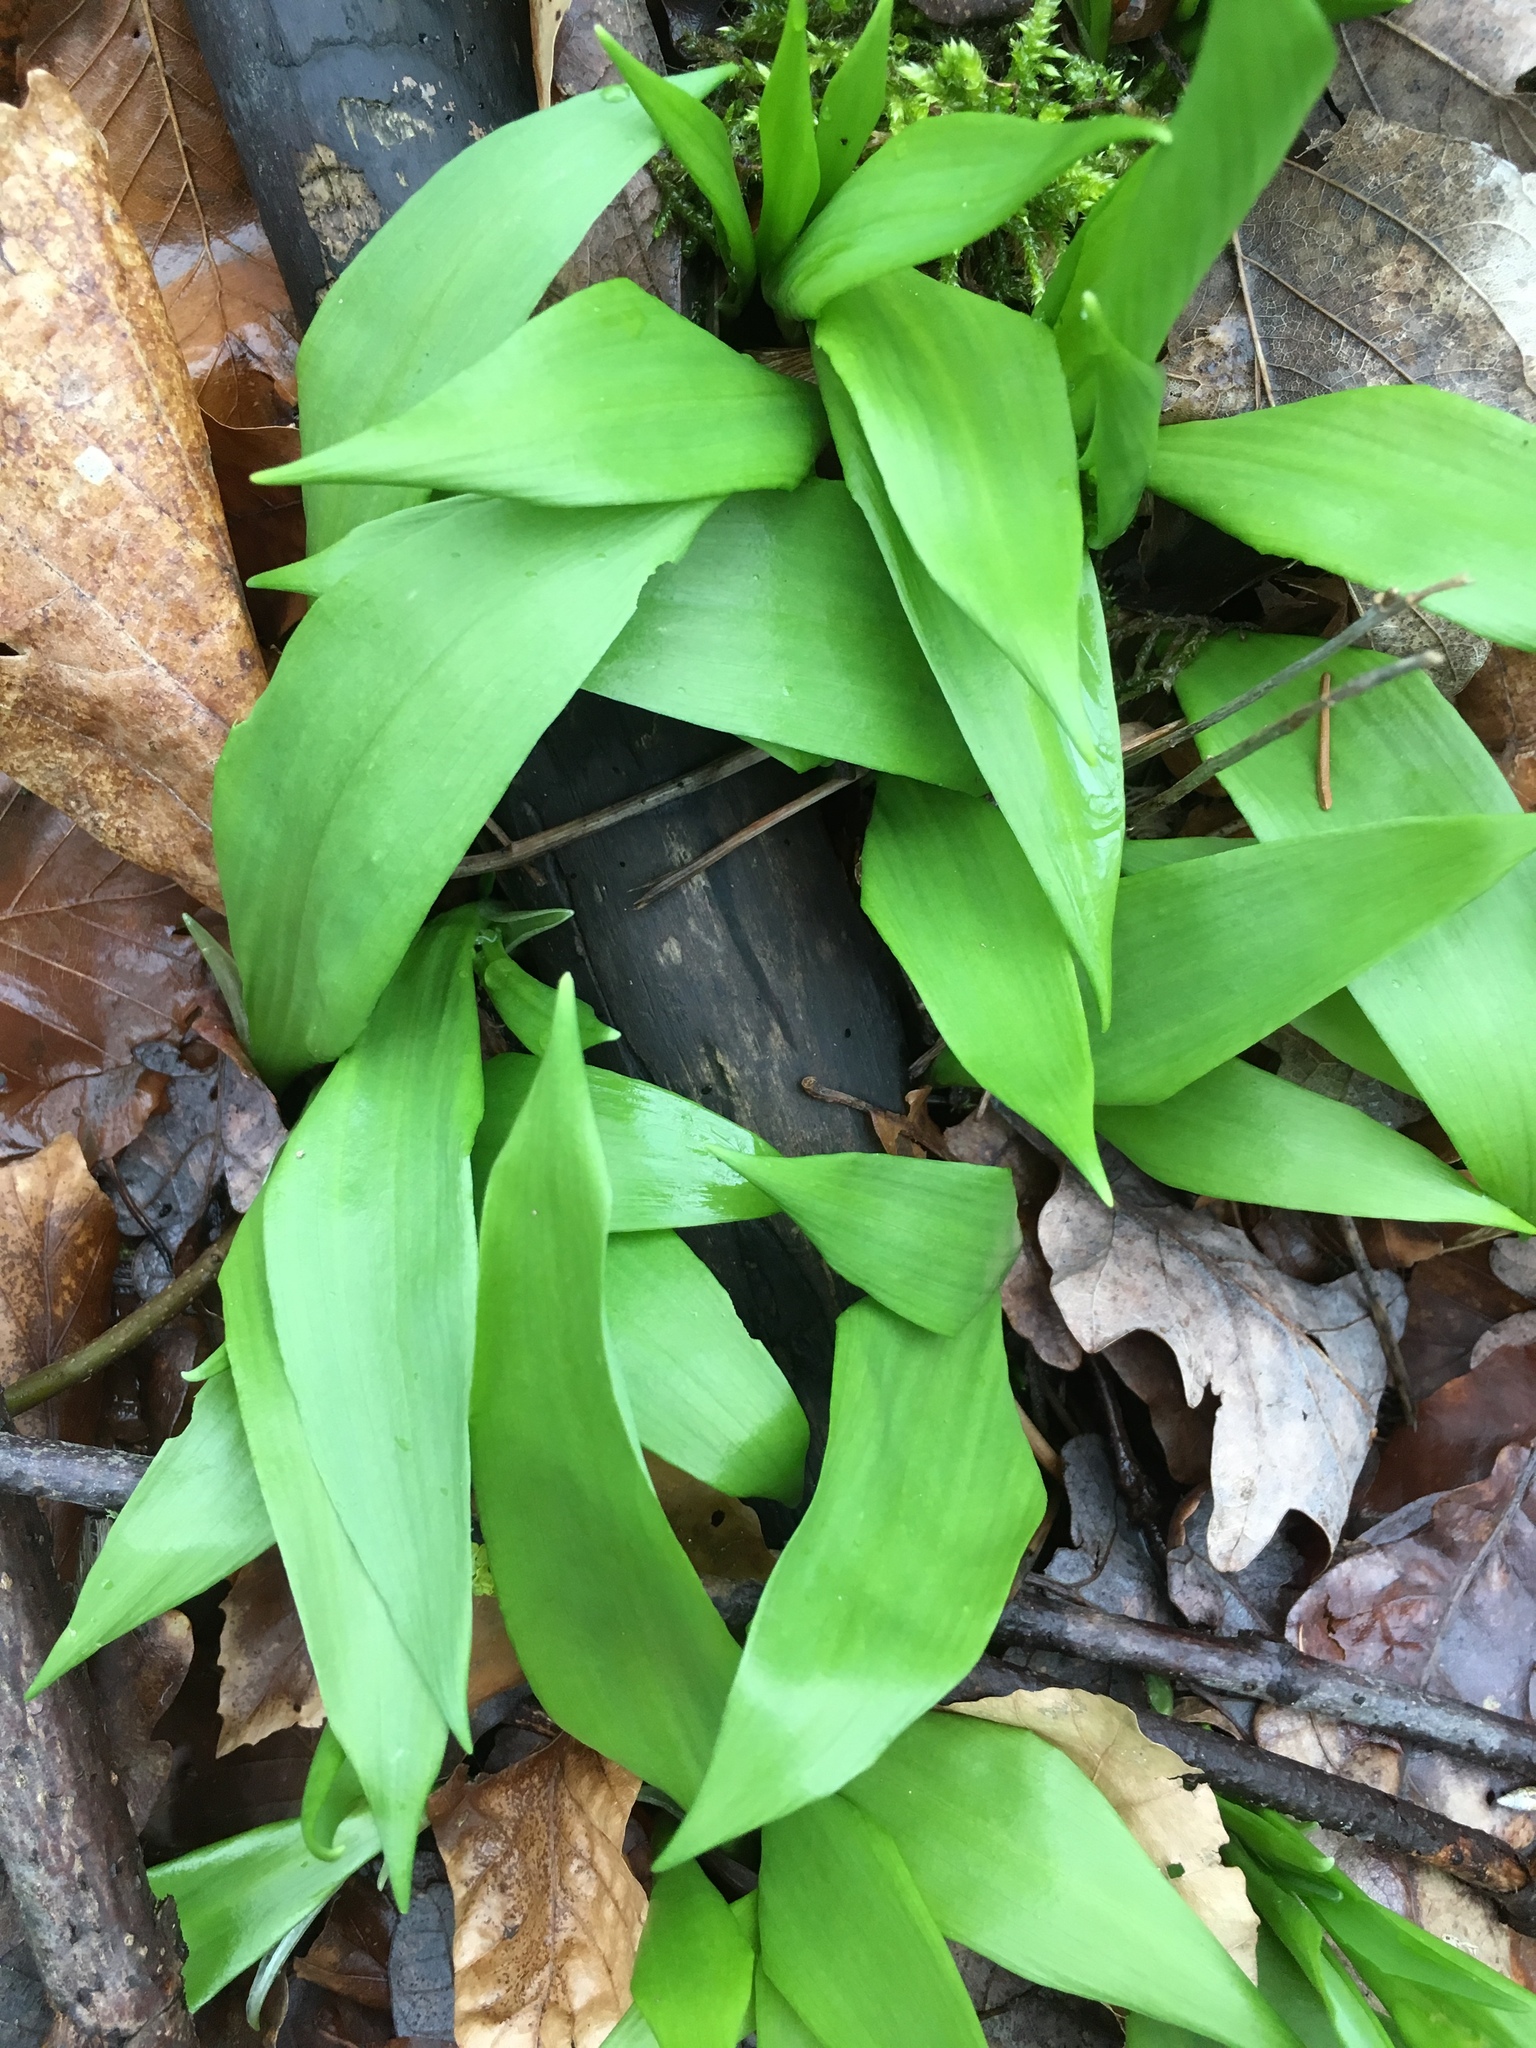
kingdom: Plantae
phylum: Tracheophyta
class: Liliopsida
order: Asparagales
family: Amaryllidaceae
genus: Allium
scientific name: Allium ursinum
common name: Ramsons
